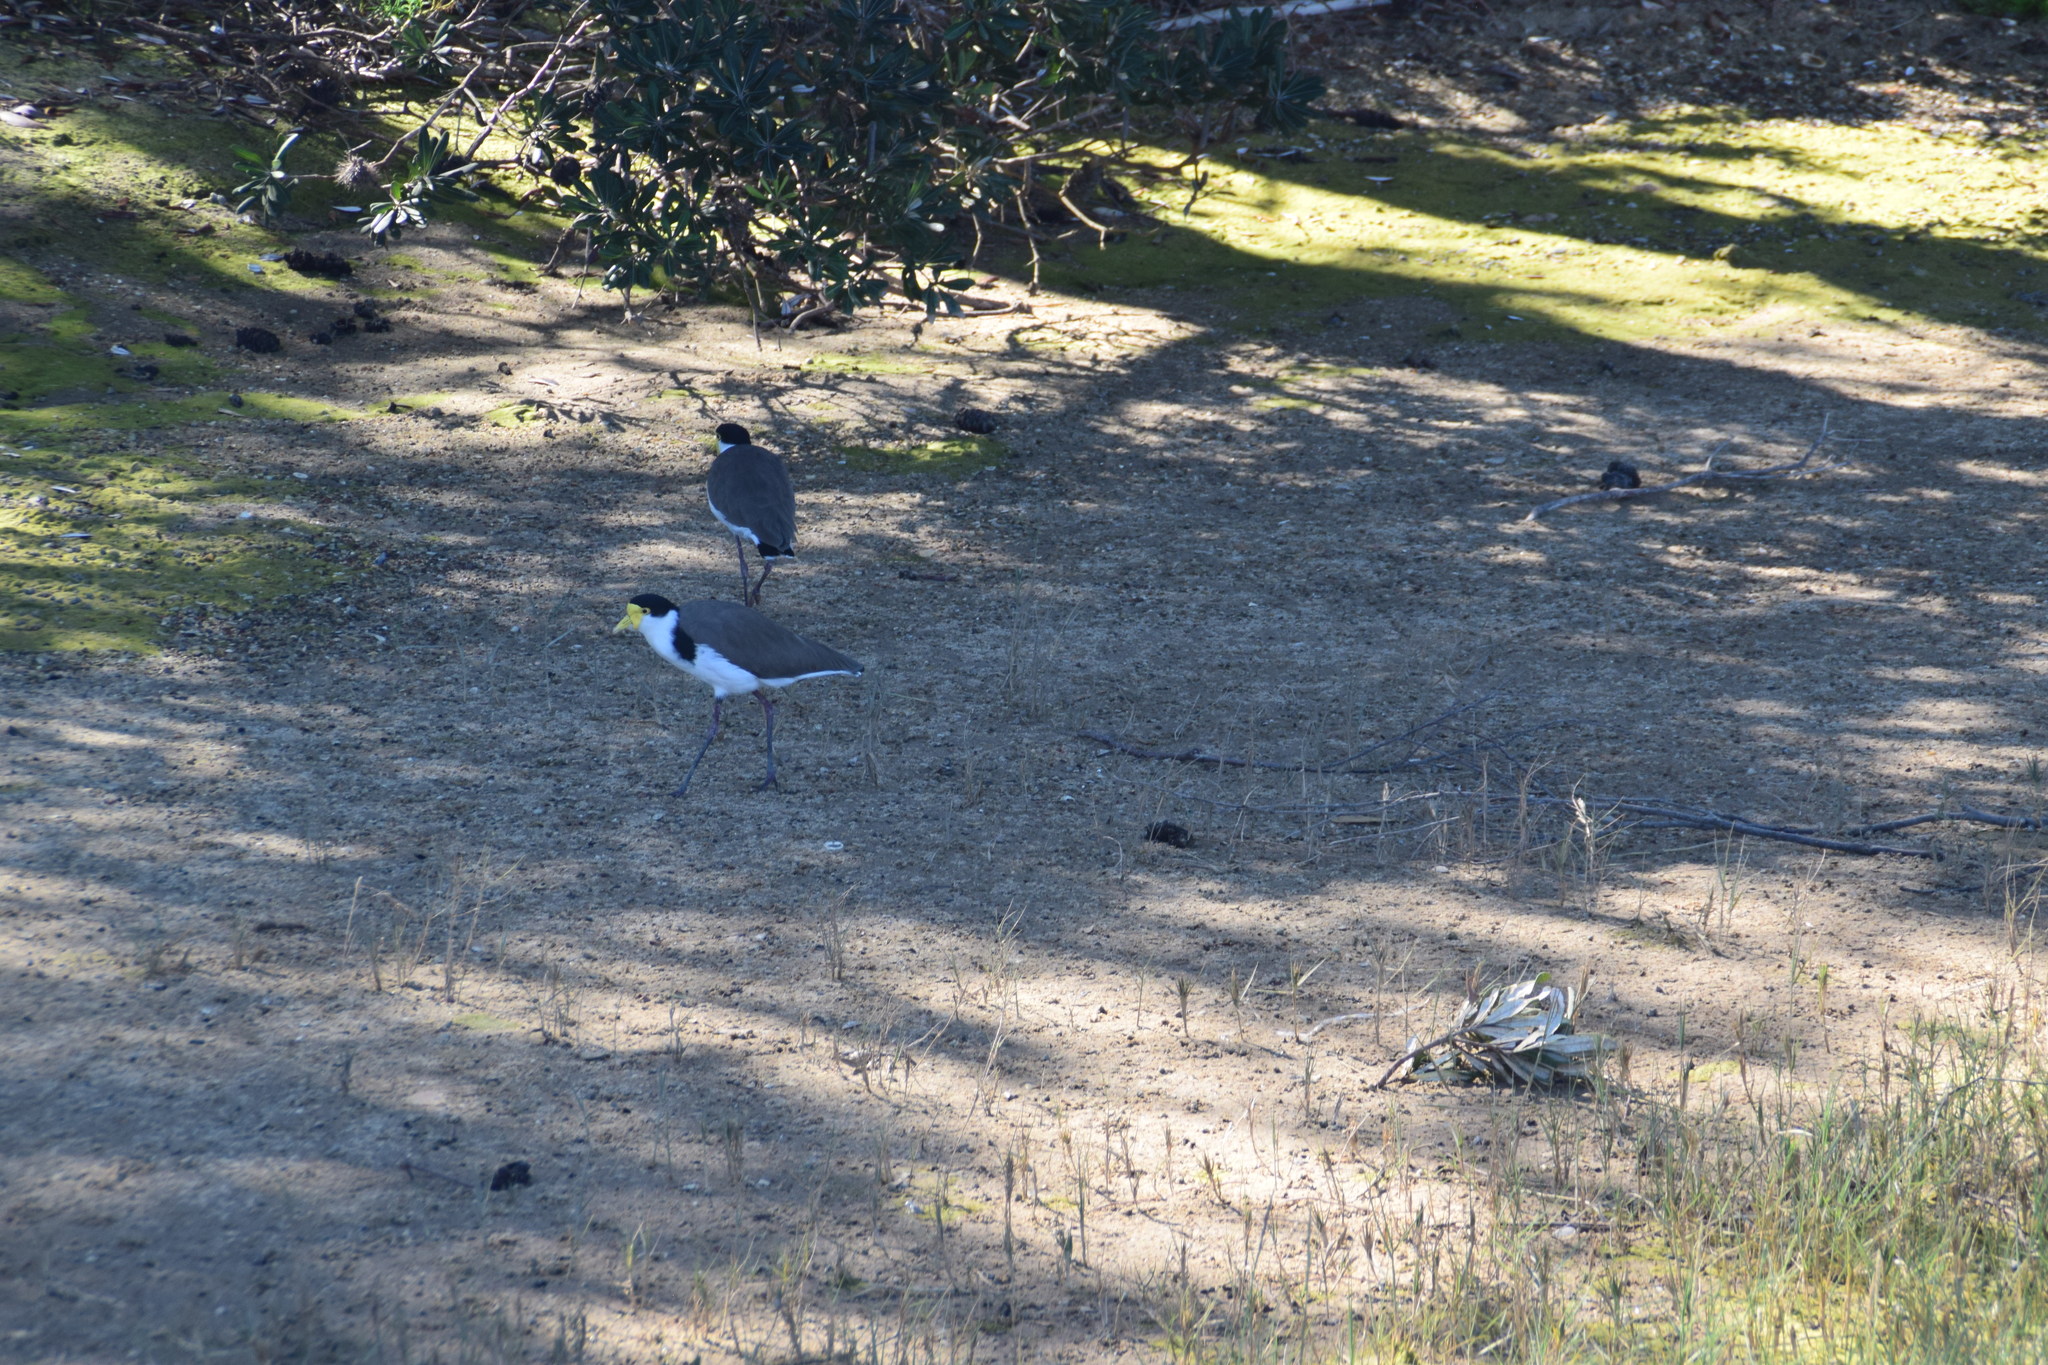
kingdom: Animalia
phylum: Chordata
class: Aves
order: Charadriiformes
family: Charadriidae
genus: Vanellus
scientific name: Vanellus miles
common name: Masked lapwing
